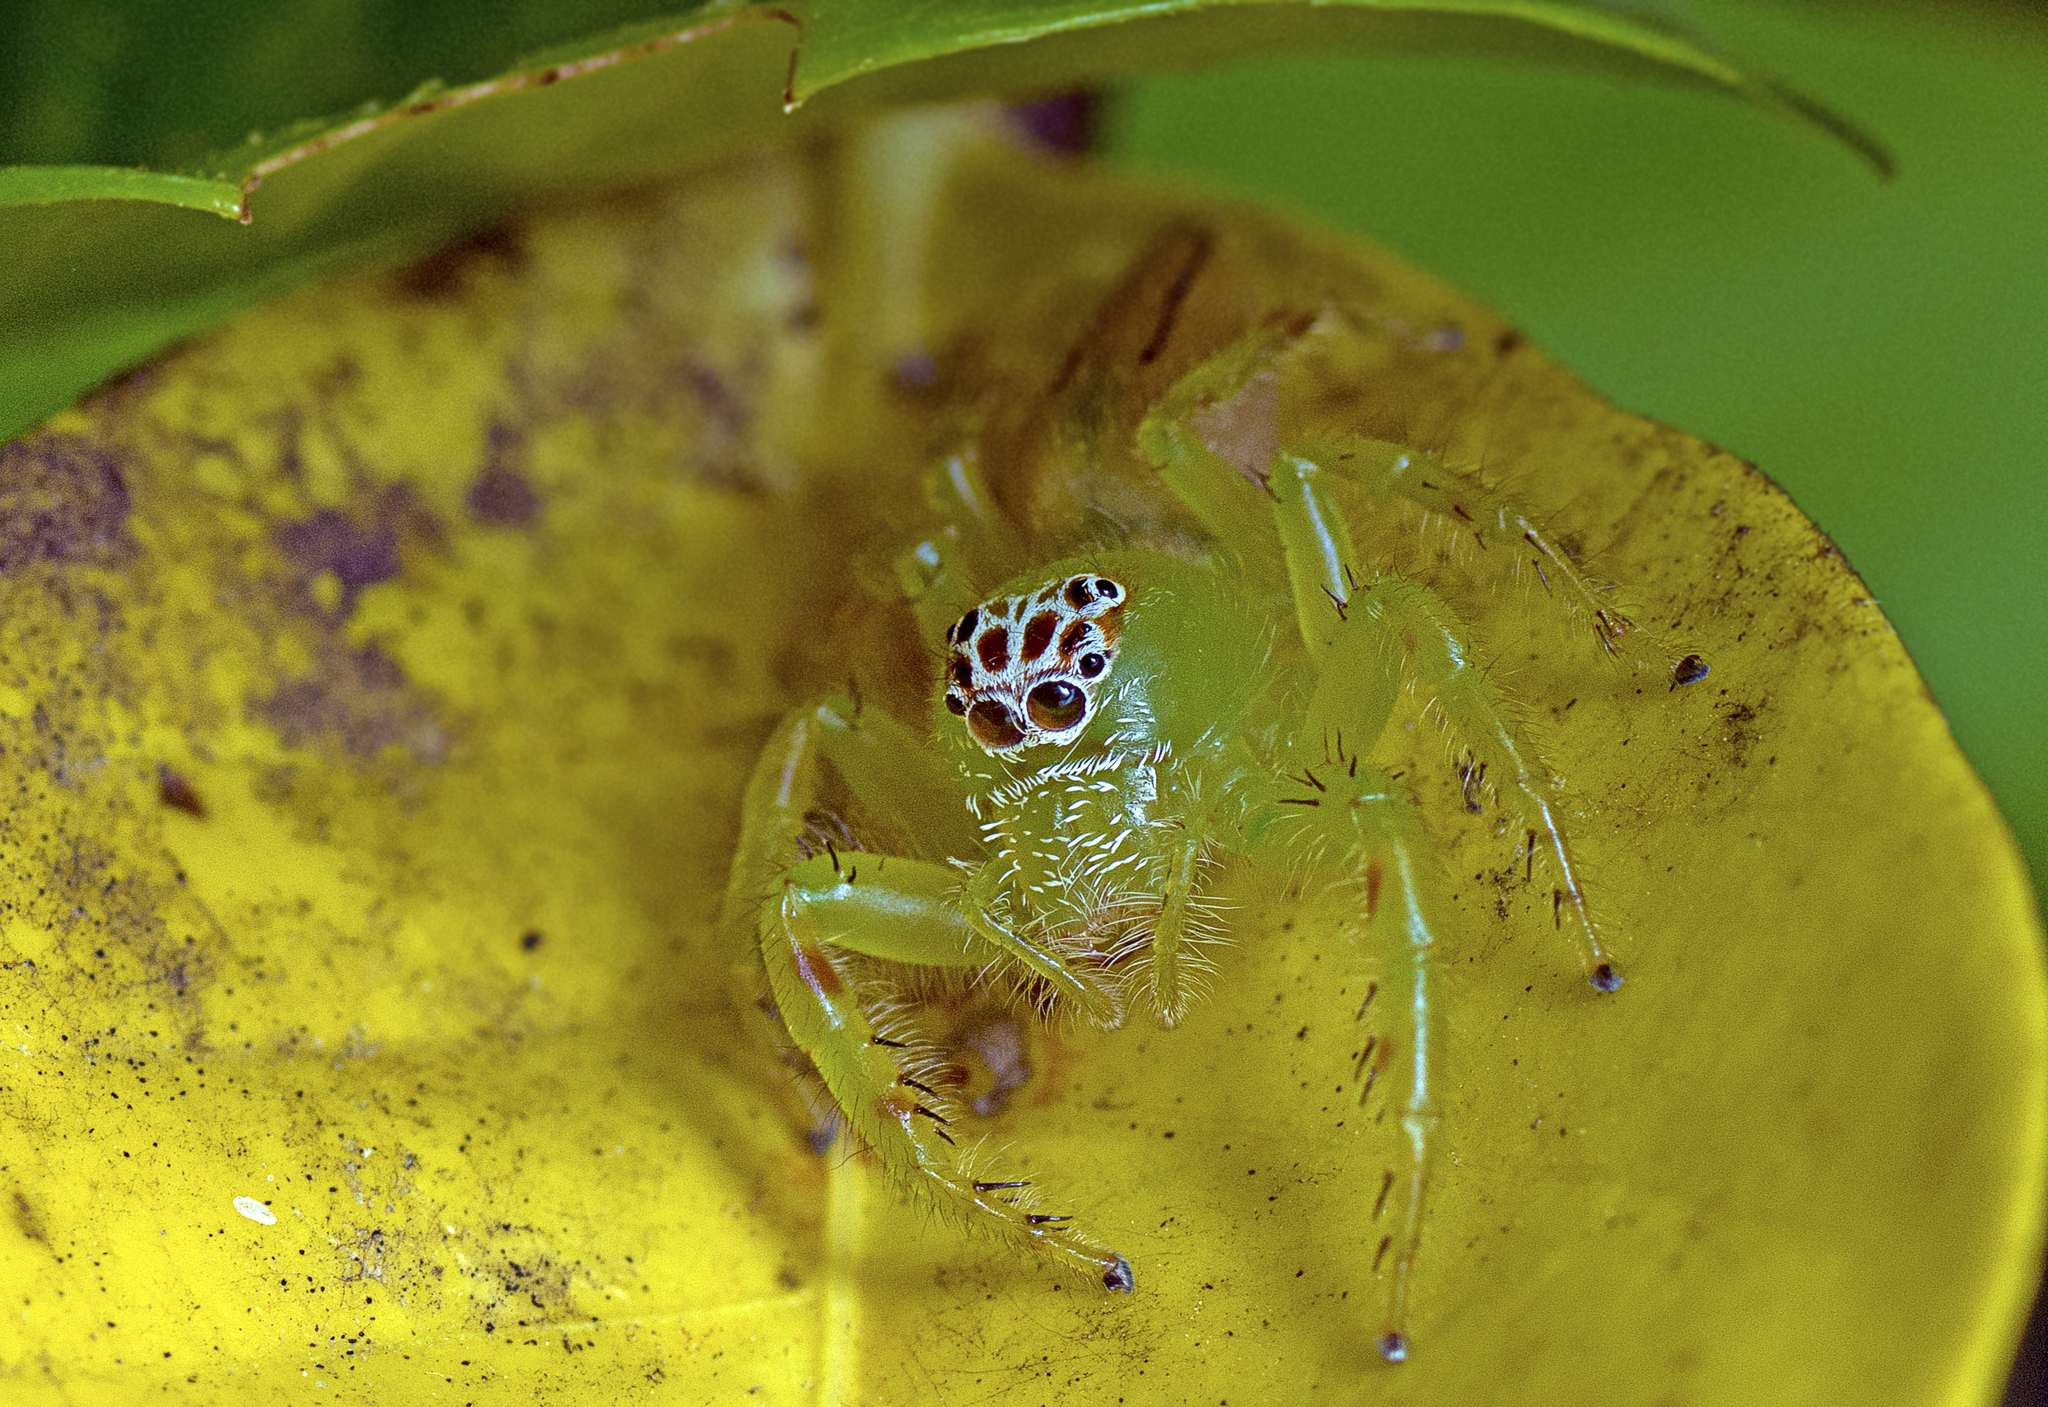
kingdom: Animalia
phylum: Arthropoda
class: Arachnida
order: Araneae
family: Salticidae
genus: Mopsus
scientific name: Mopsus mormon
